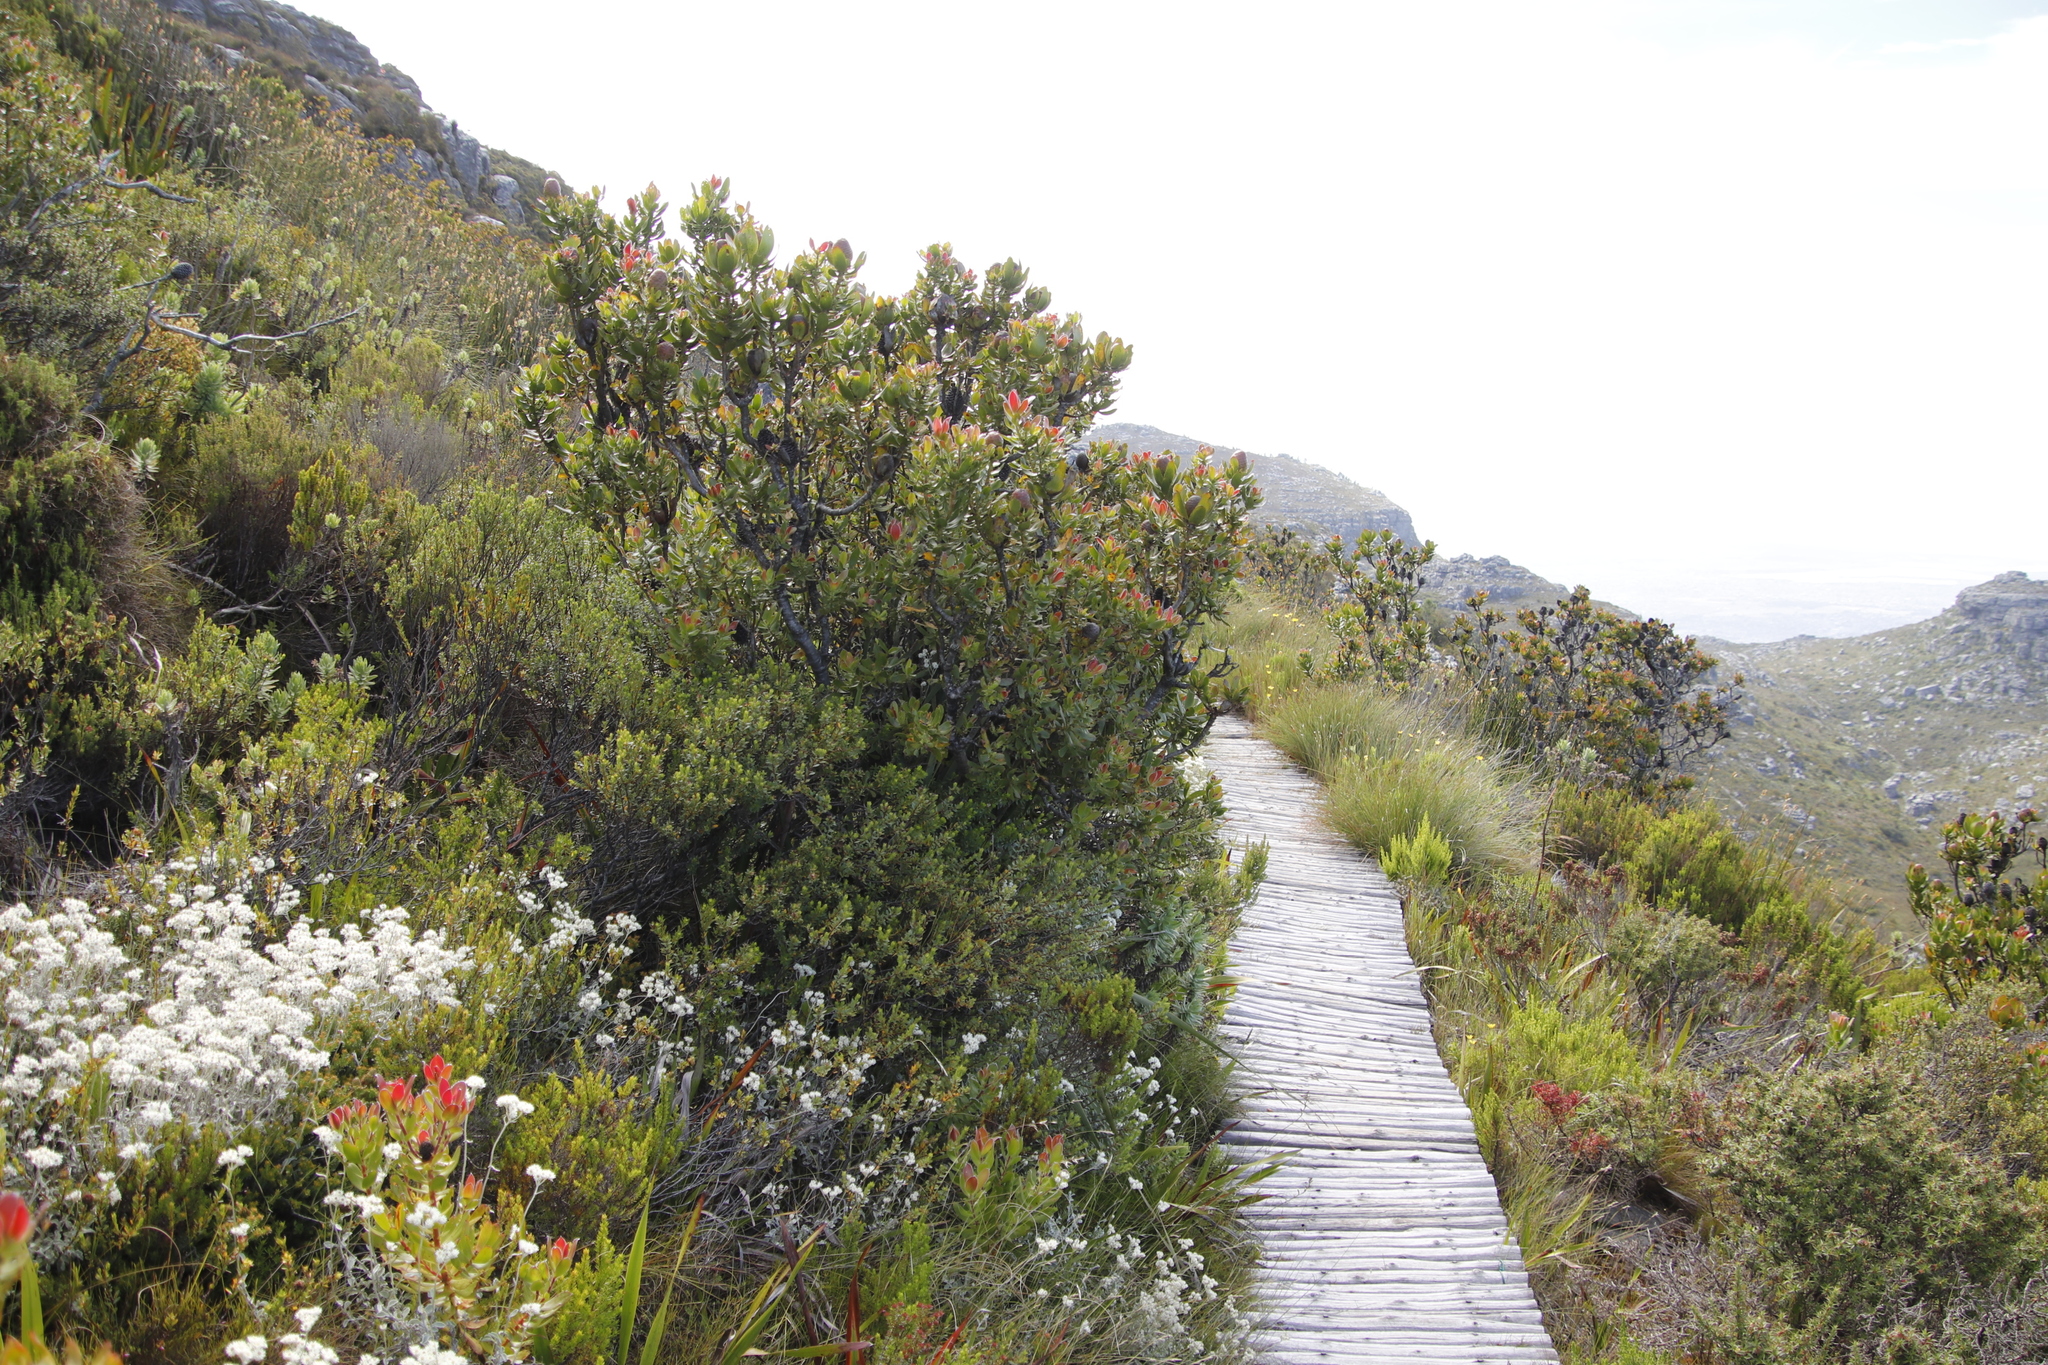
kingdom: Plantae
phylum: Tracheophyta
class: Magnoliopsida
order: Proteales
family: Proteaceae
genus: Leucadendron
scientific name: Leucadendron strobilinum
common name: Mountain rose
